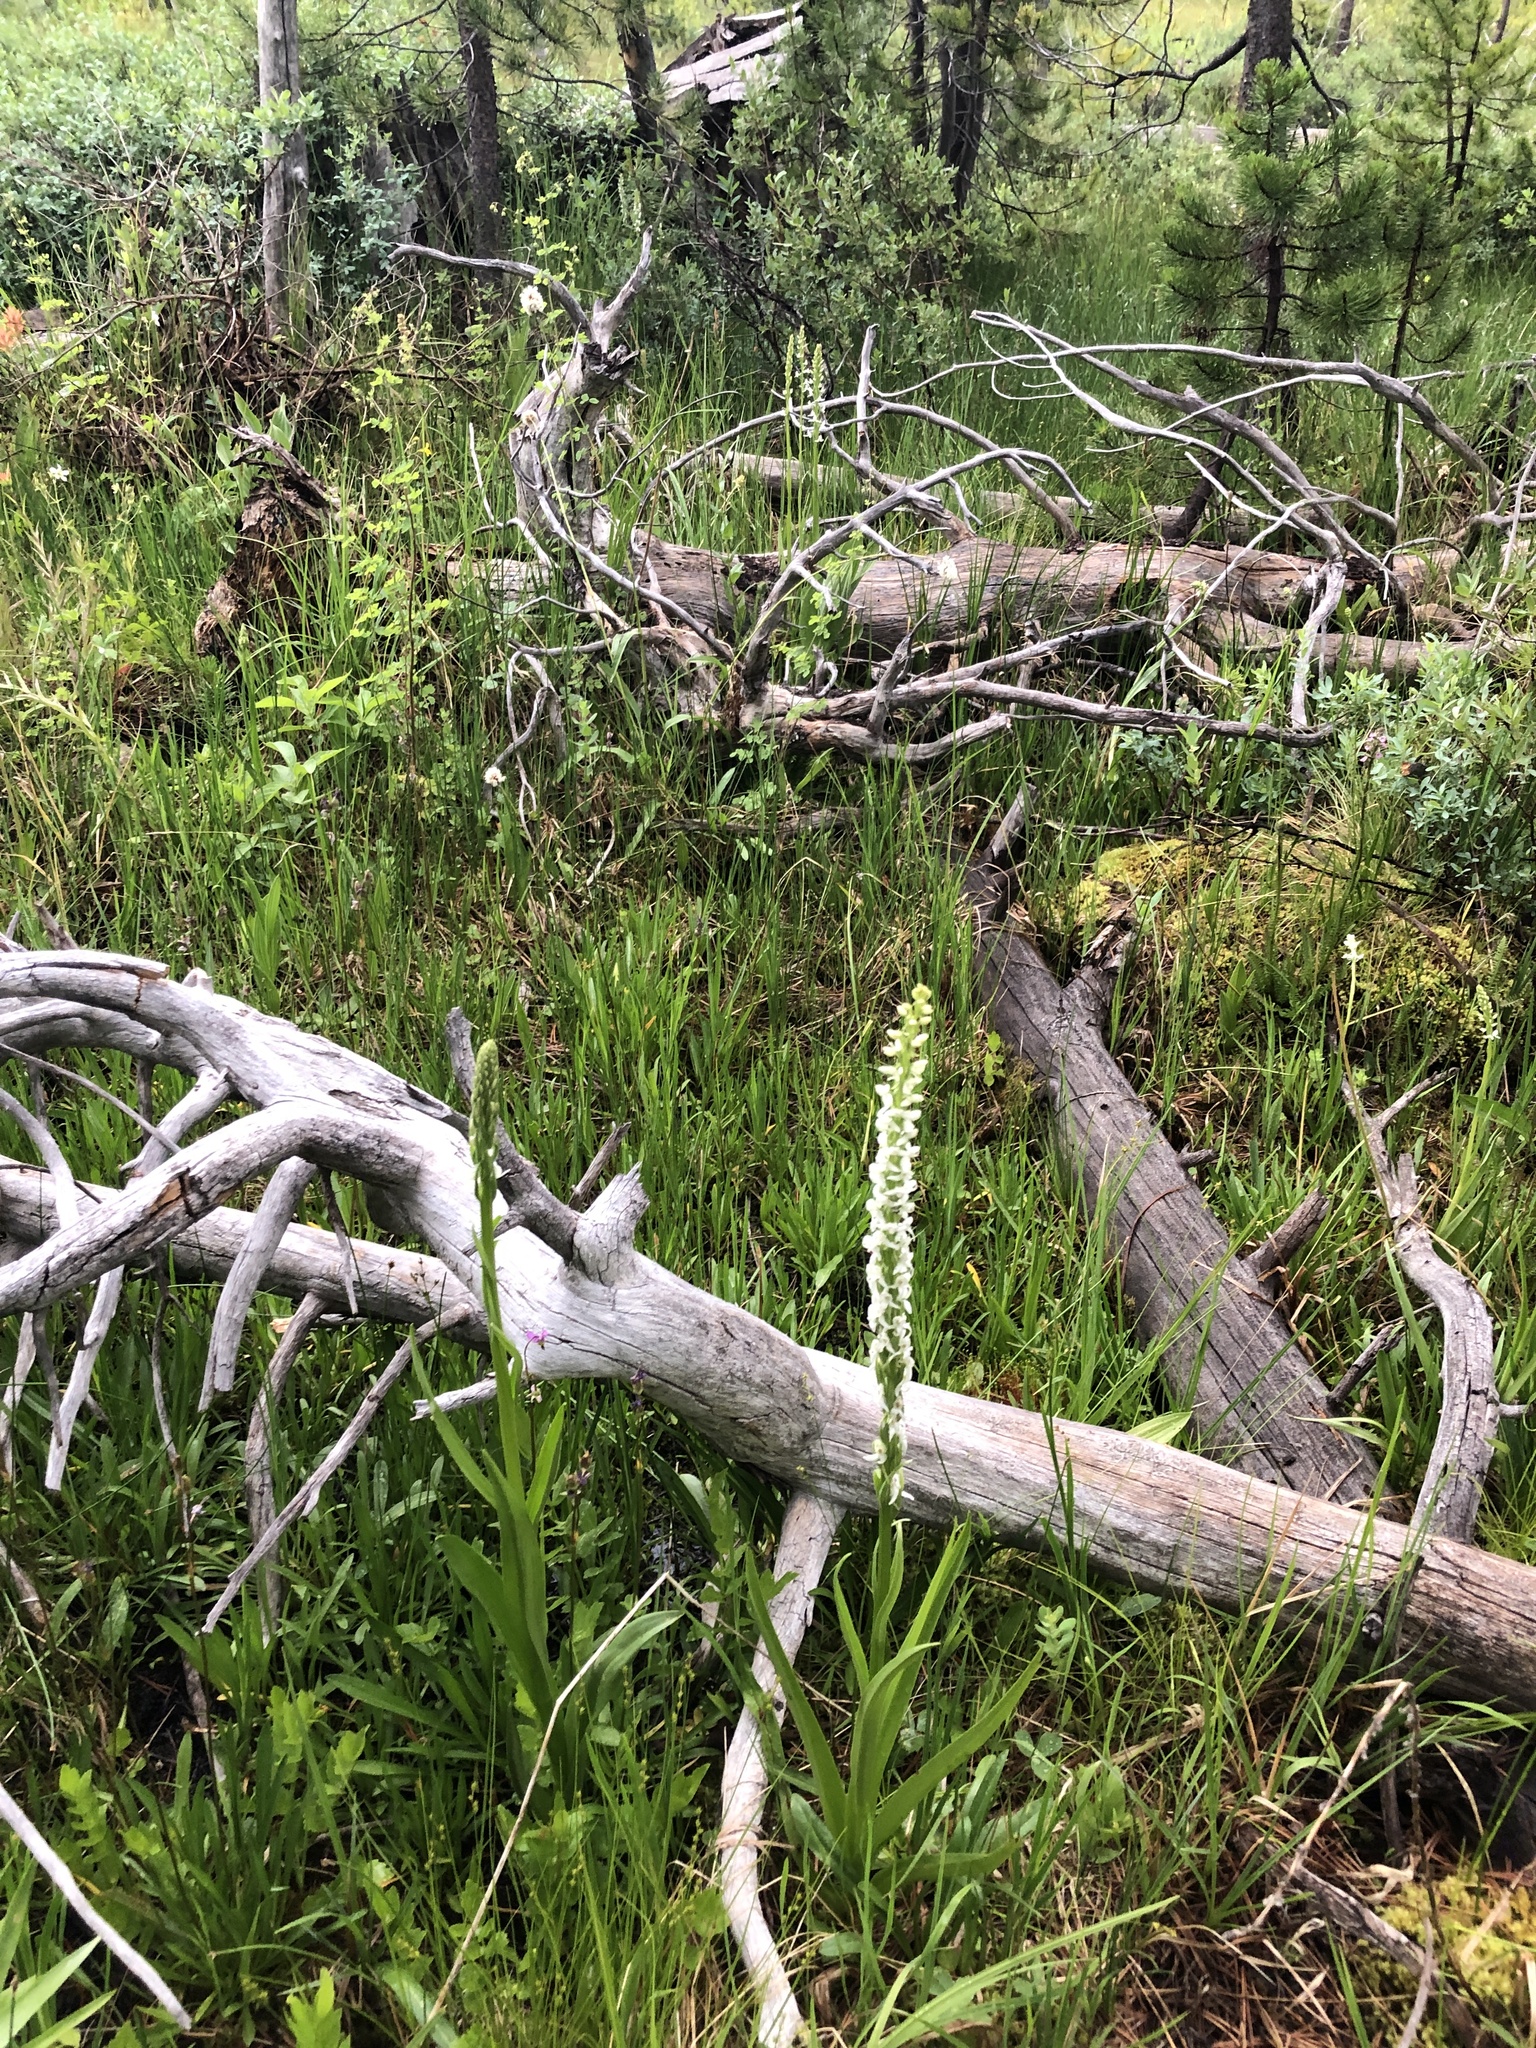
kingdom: Plantae
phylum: Tracheophyta
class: Liliopsida
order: Asparagales
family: Orchidaceae
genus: Platanthera
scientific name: Platanthera dilatata
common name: Bog candles
